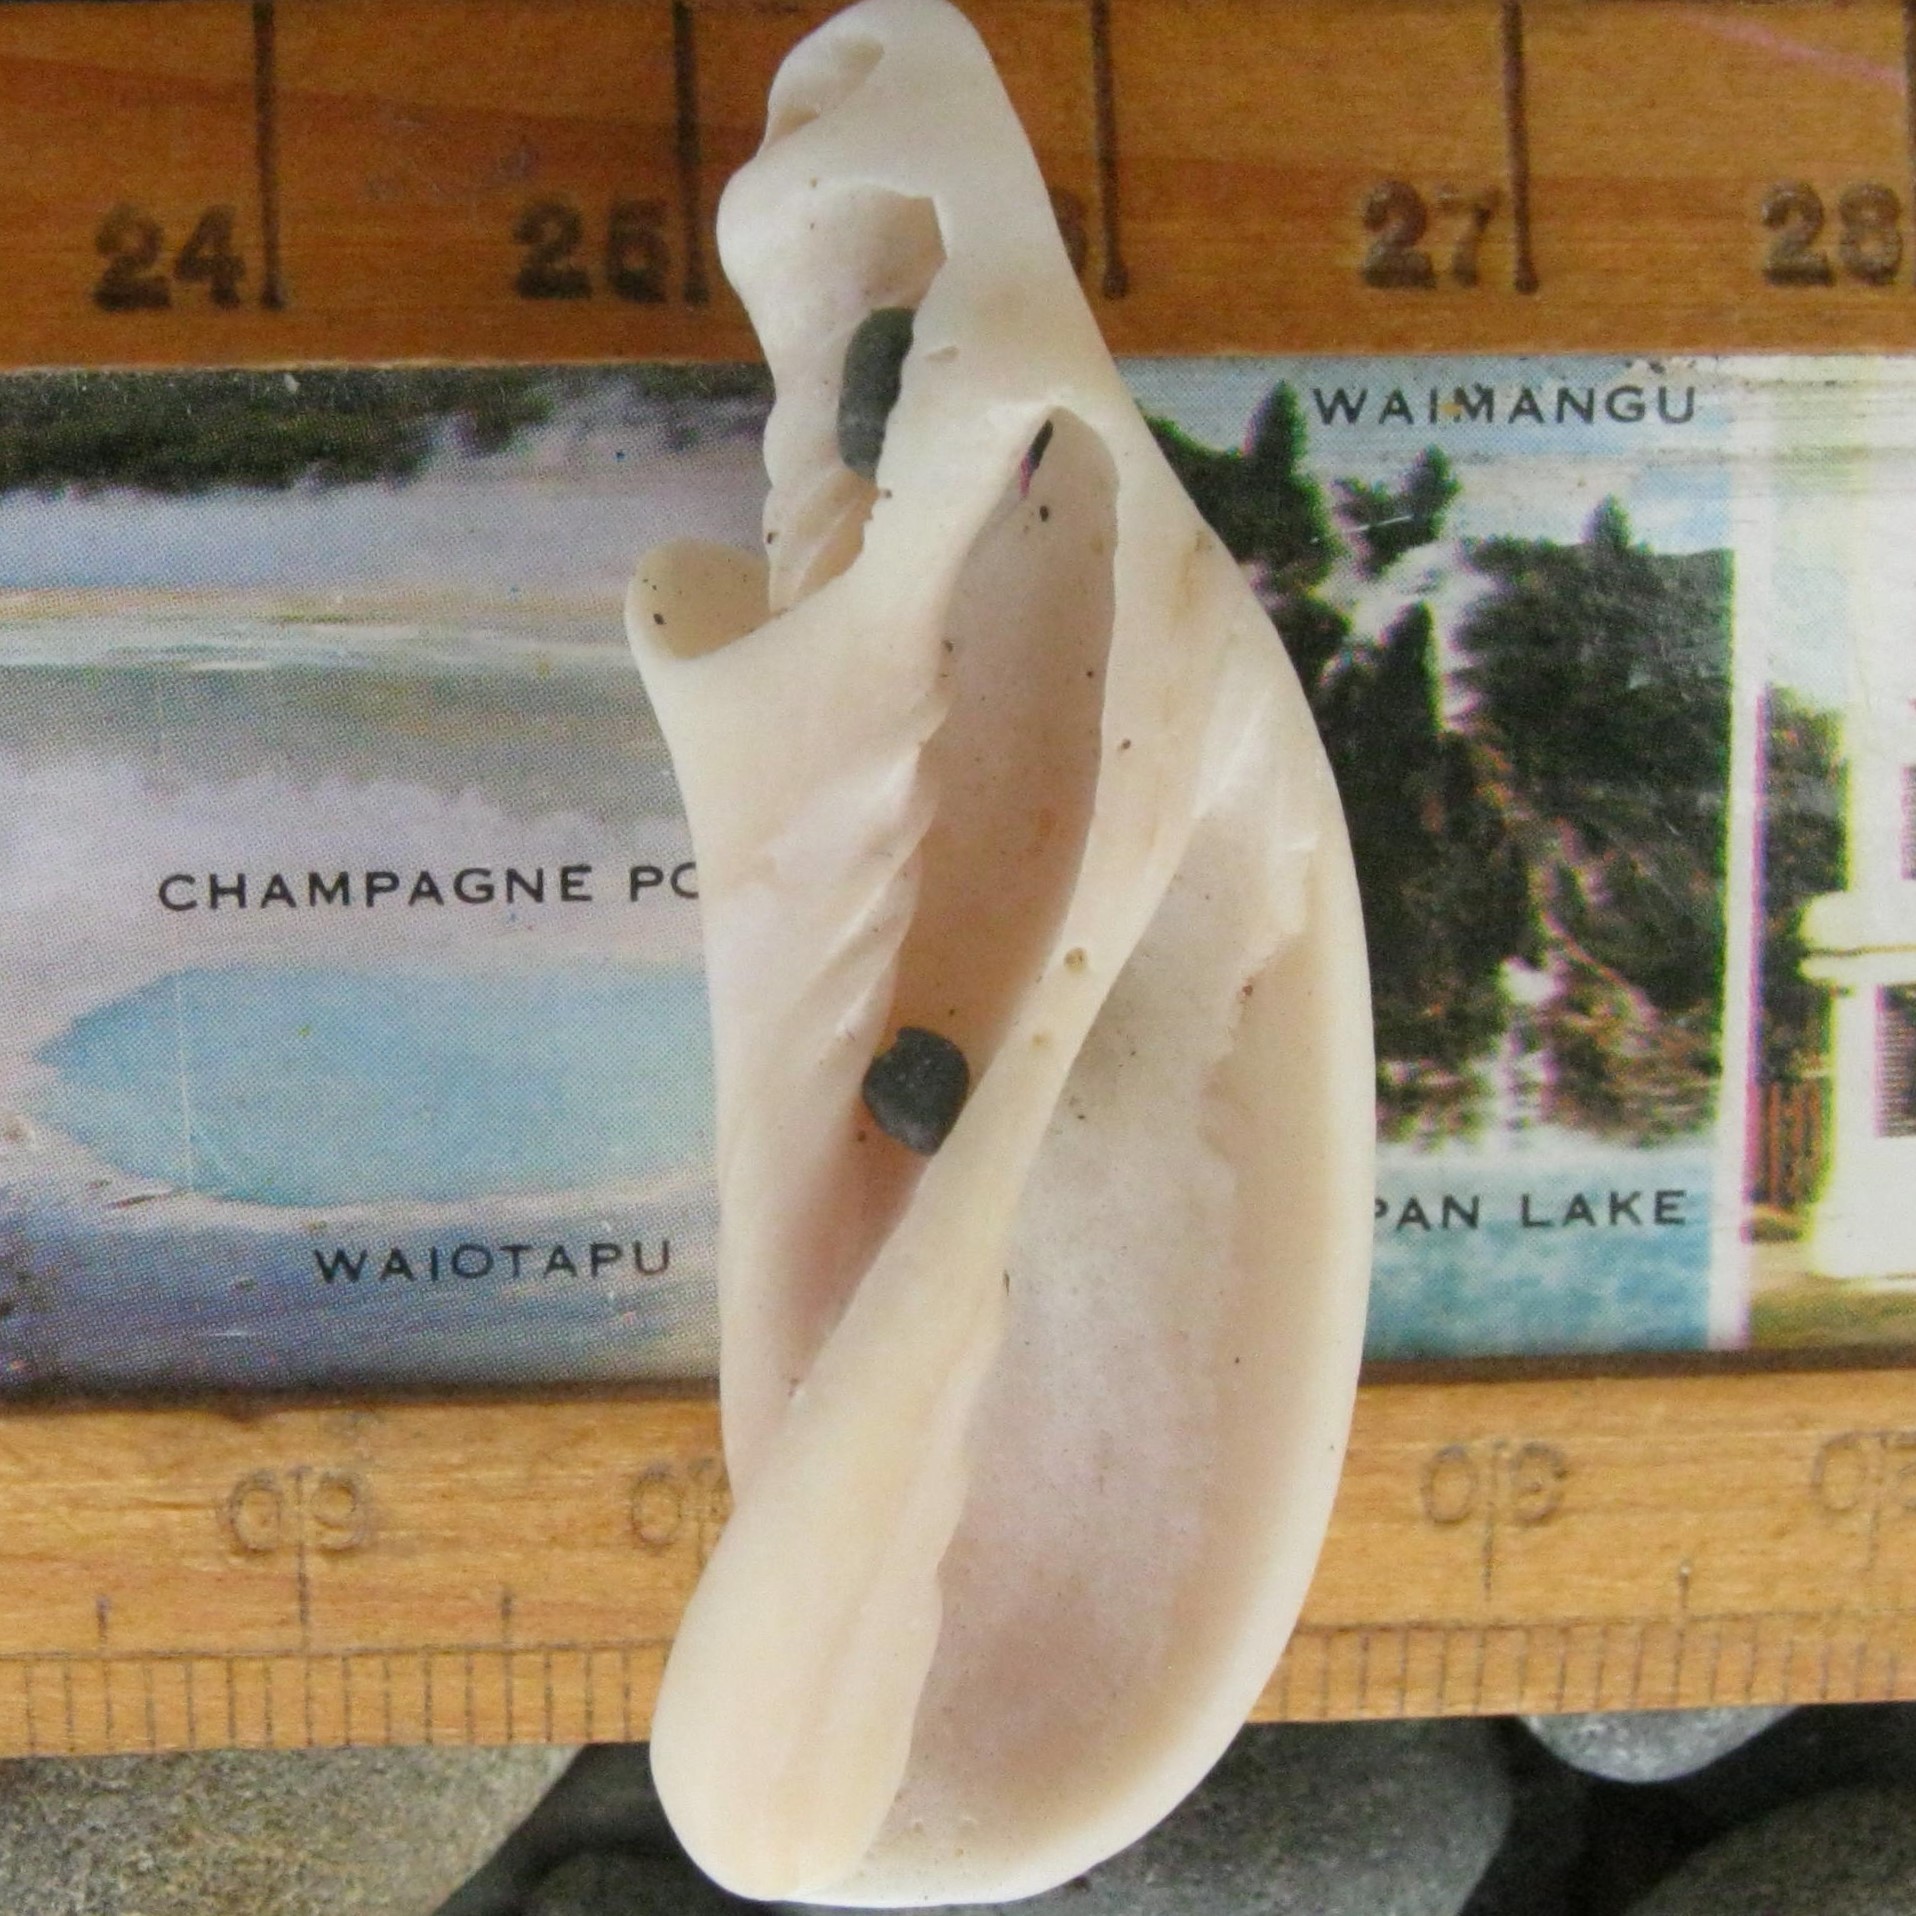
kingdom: Animalia
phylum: Mollusca
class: Gastropoda
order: Neogastropoda
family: Volutidae
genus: Alcithoe
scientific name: Alcithoe fusus
